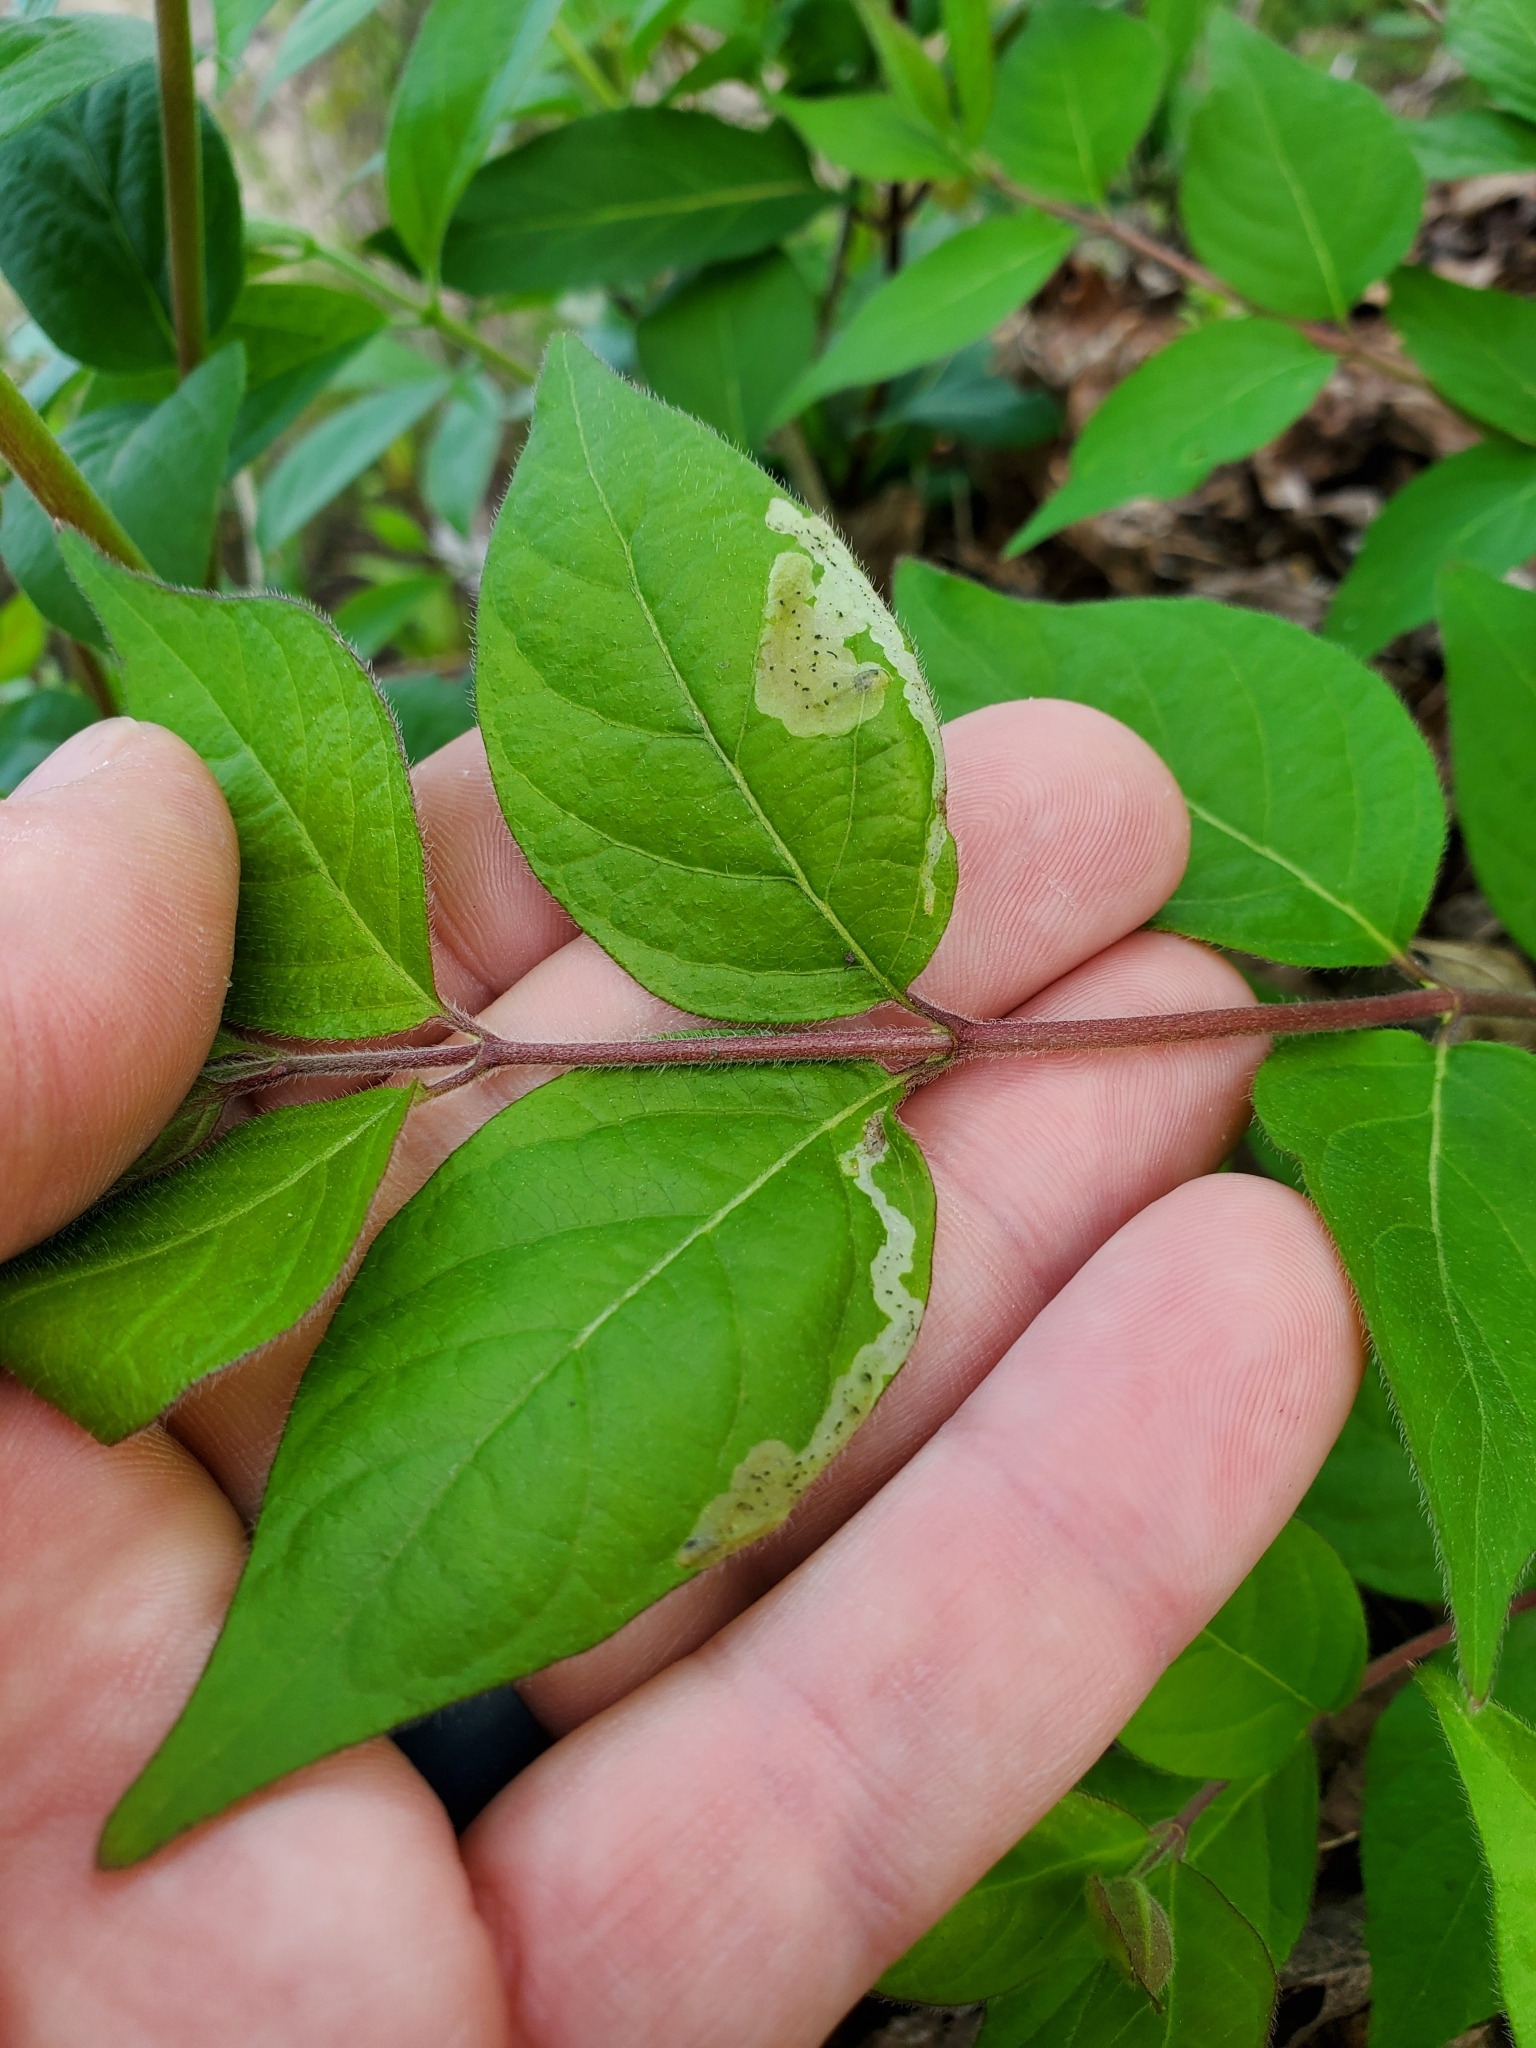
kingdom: Animalia
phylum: Arthropoda
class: Insecta
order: Diptera
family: Agromyzidae
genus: Aulagromyza
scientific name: Aulagromyza cornigera
